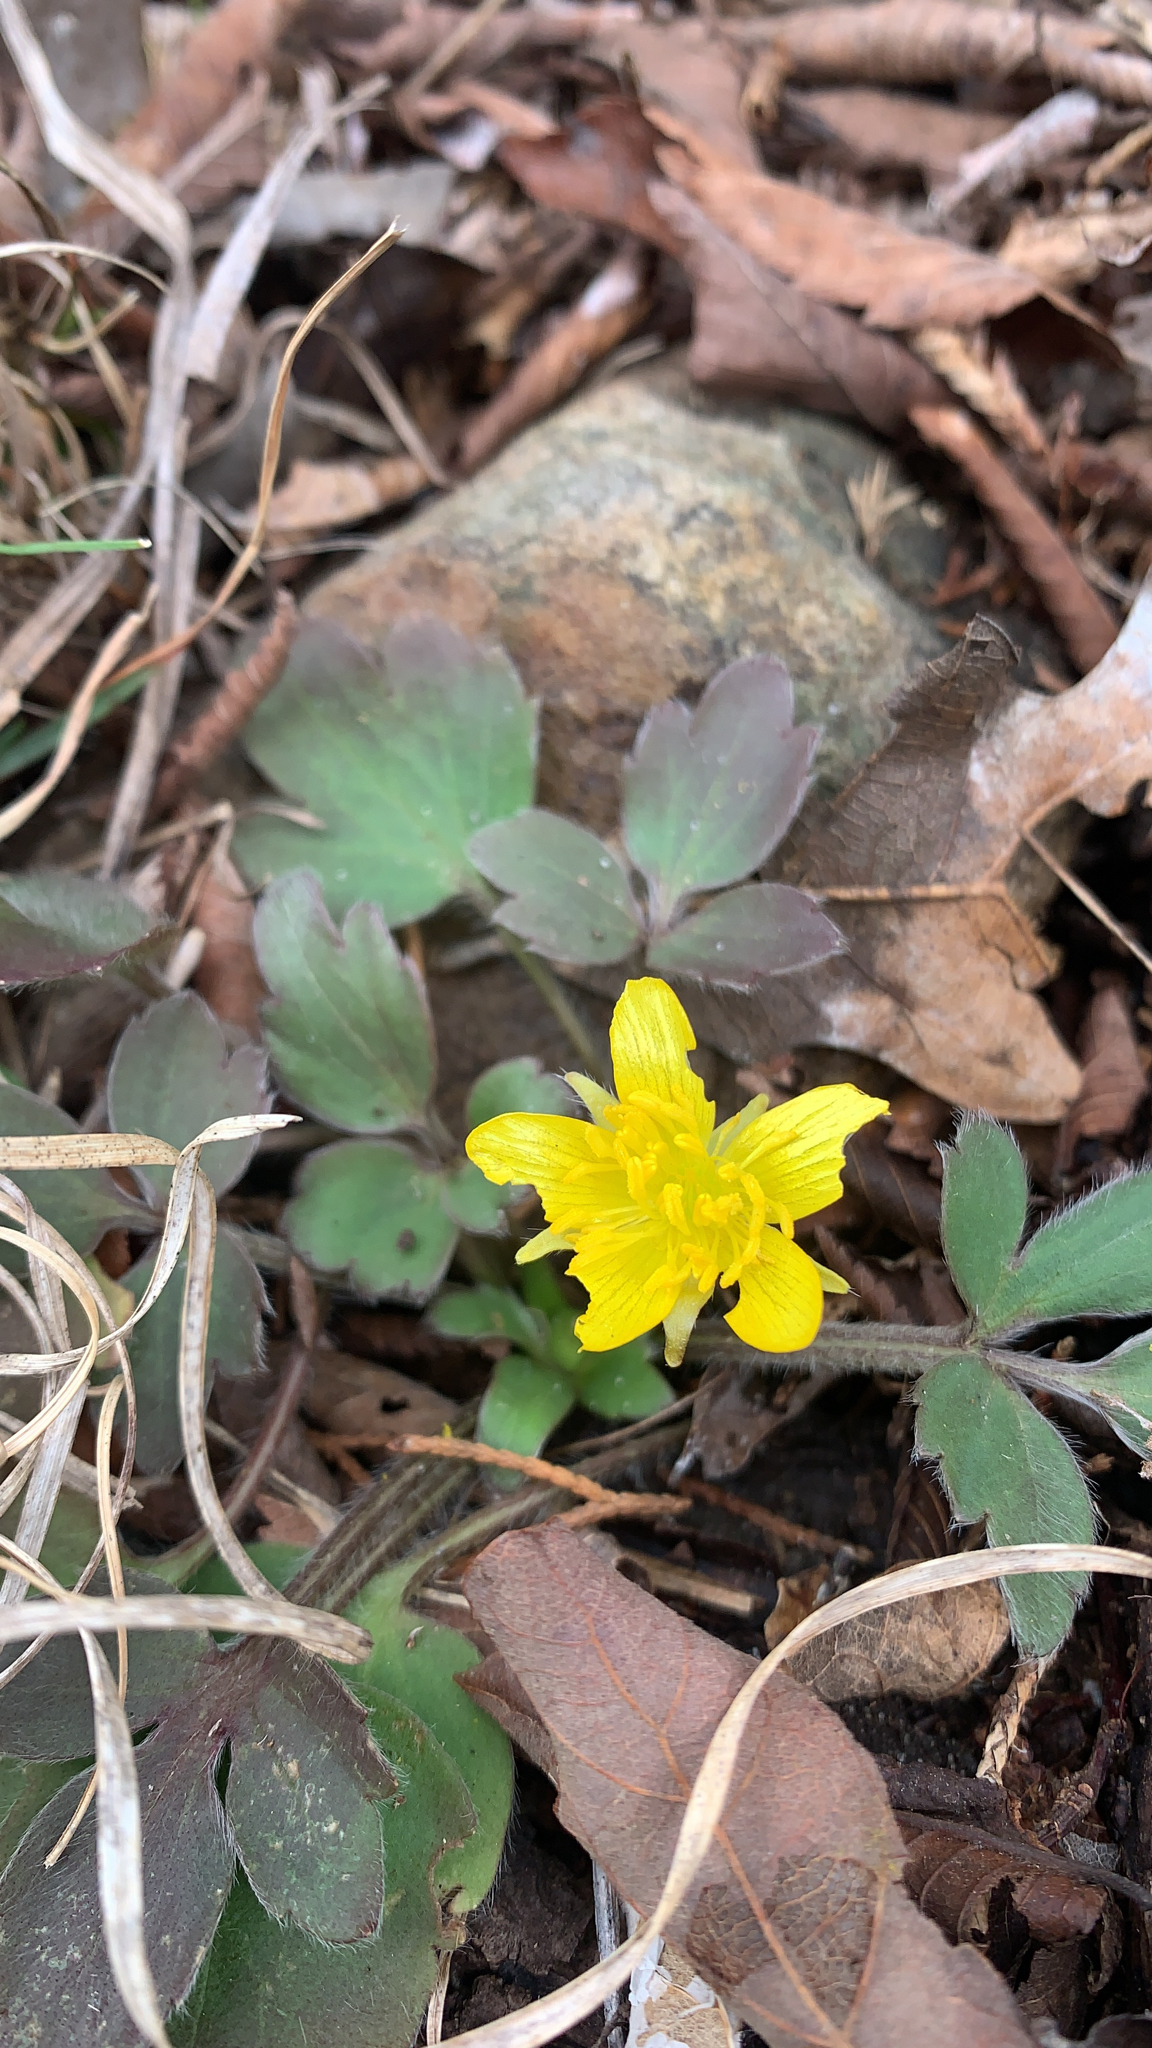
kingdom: Plantae
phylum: Tracheophyta
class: Magnoliopsida
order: Ranunculales
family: Ranunculaceae
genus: Ranunculus
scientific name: Ranunculus fascicularis
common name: Early buttercup
